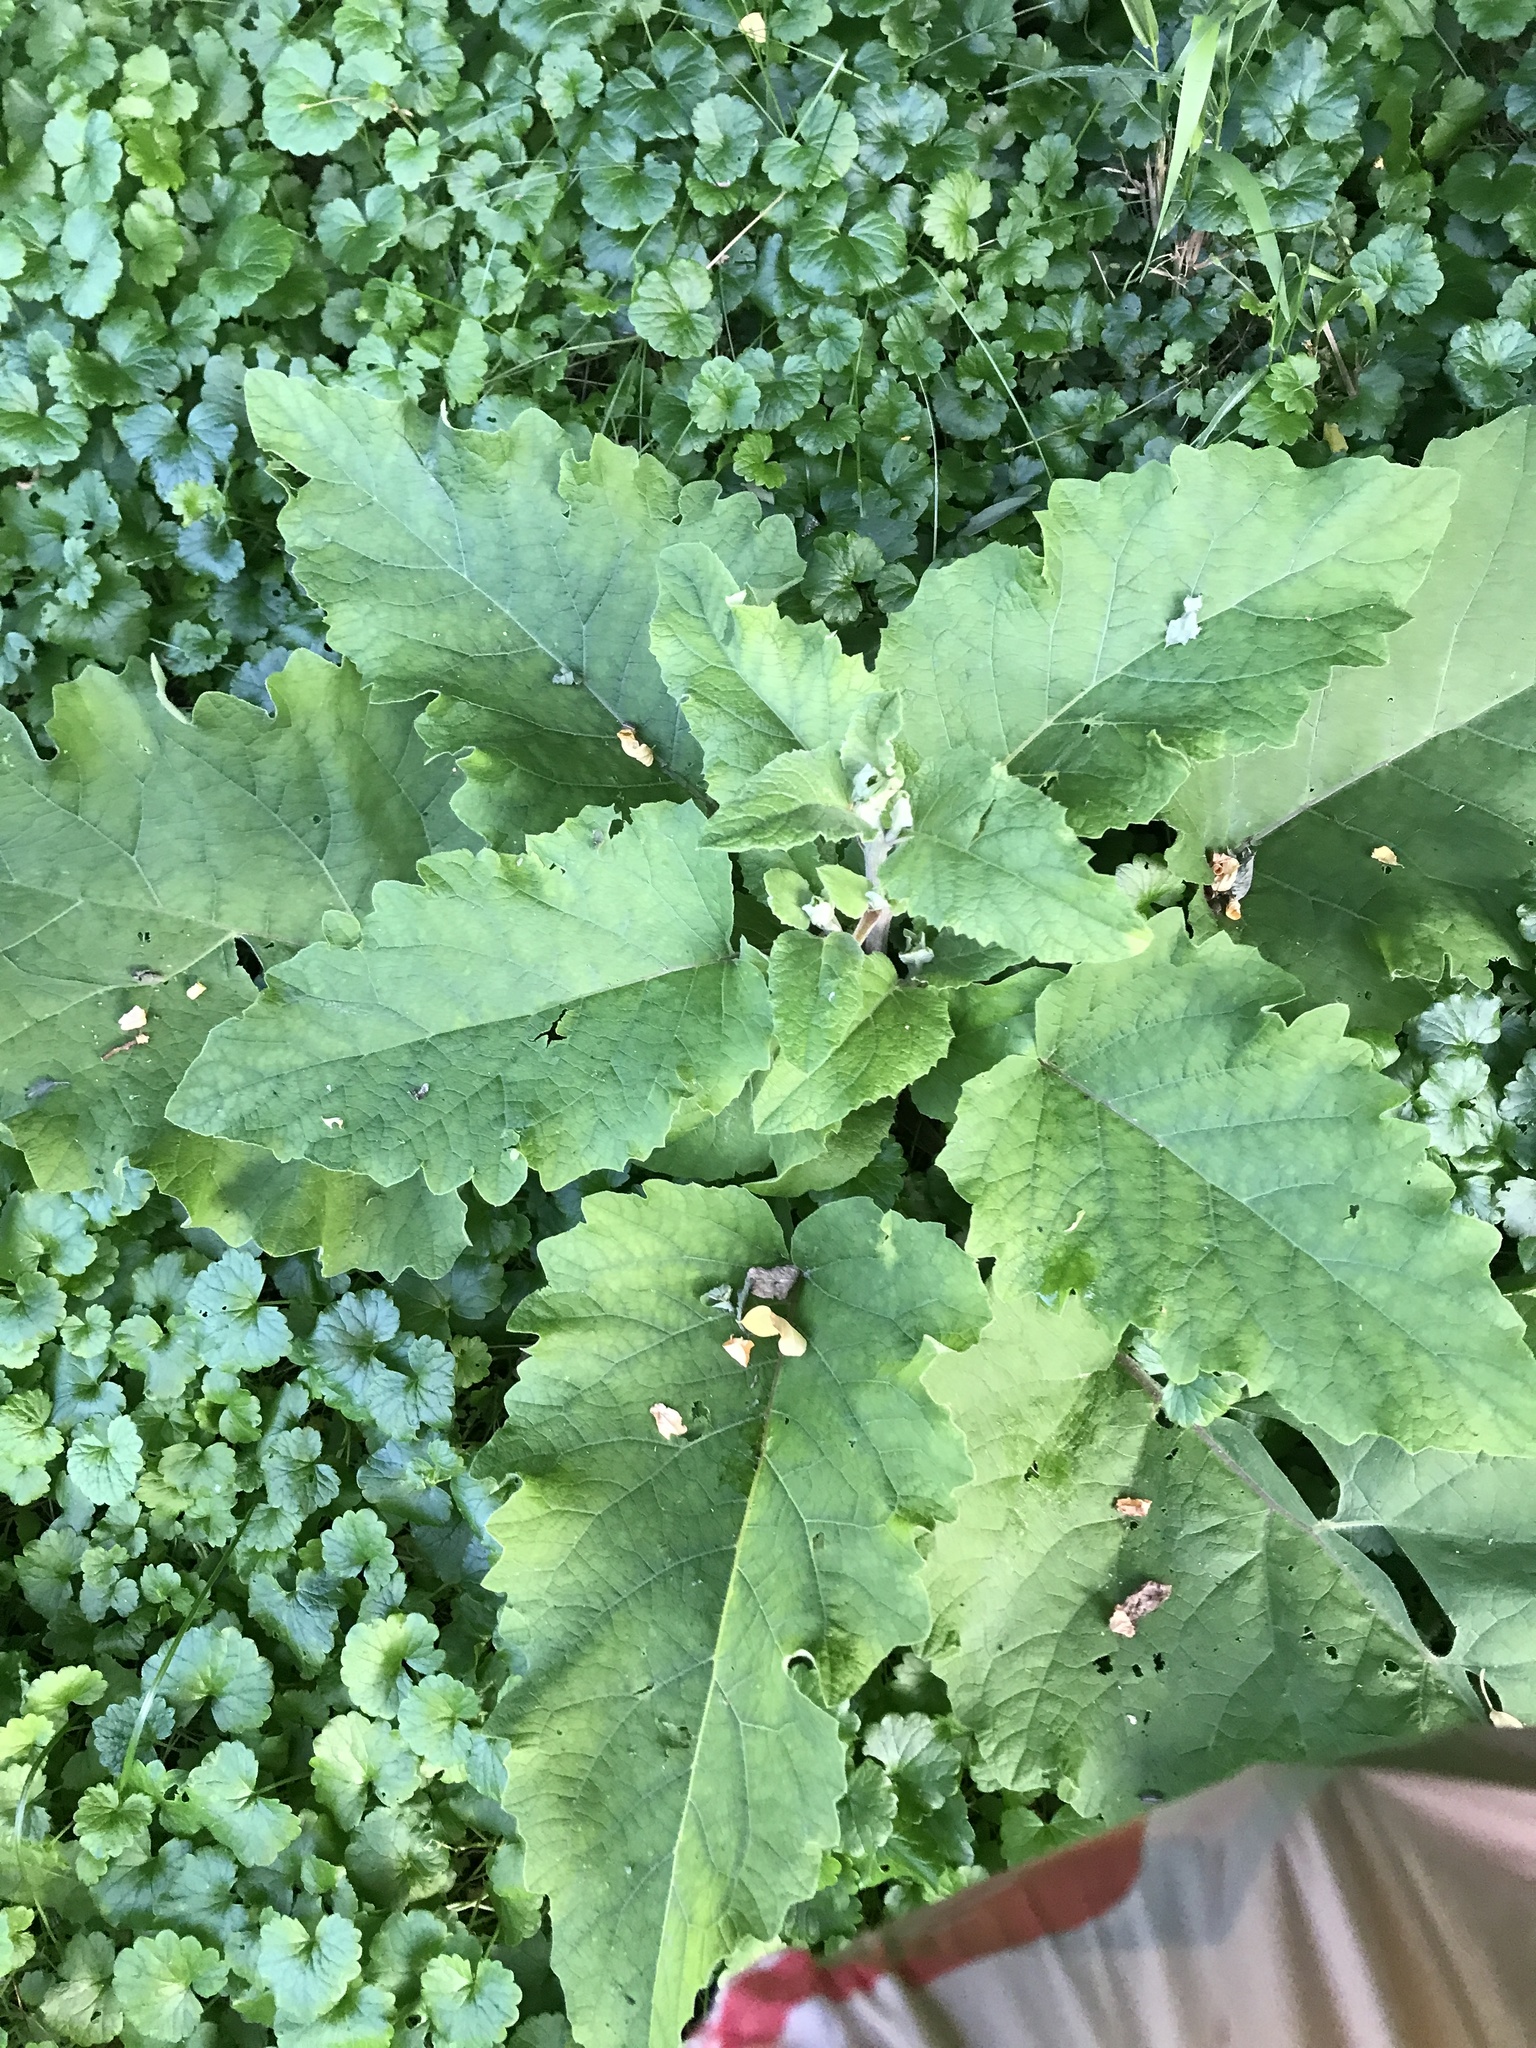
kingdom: Plantae
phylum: Tracheophyta
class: Magnoliopsida
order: Asterales
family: Asteraceae
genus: Arctium
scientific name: Arctium
